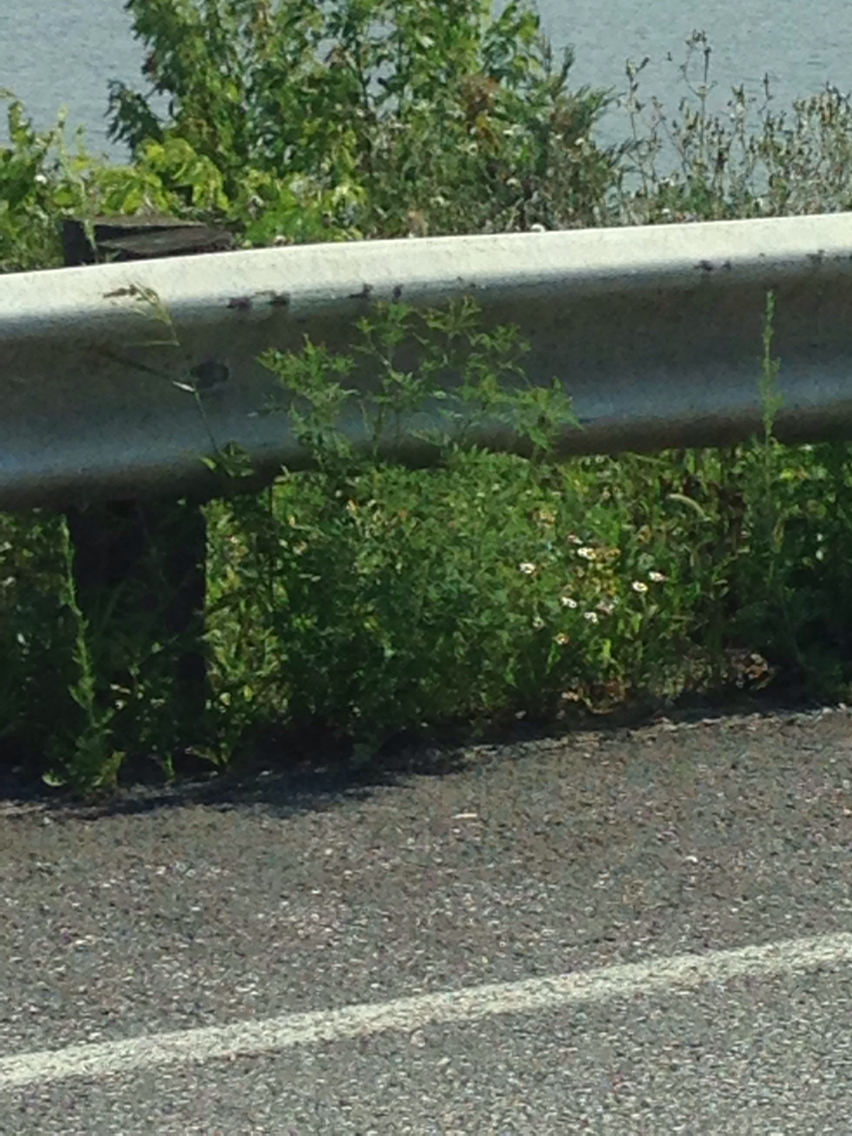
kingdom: Plantae
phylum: Tracheophyta
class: Magnoliopsida
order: Asterales
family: Asteraceae
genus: Ambrosia
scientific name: Ambrosia artemisiifolia
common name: Annual ragweed
